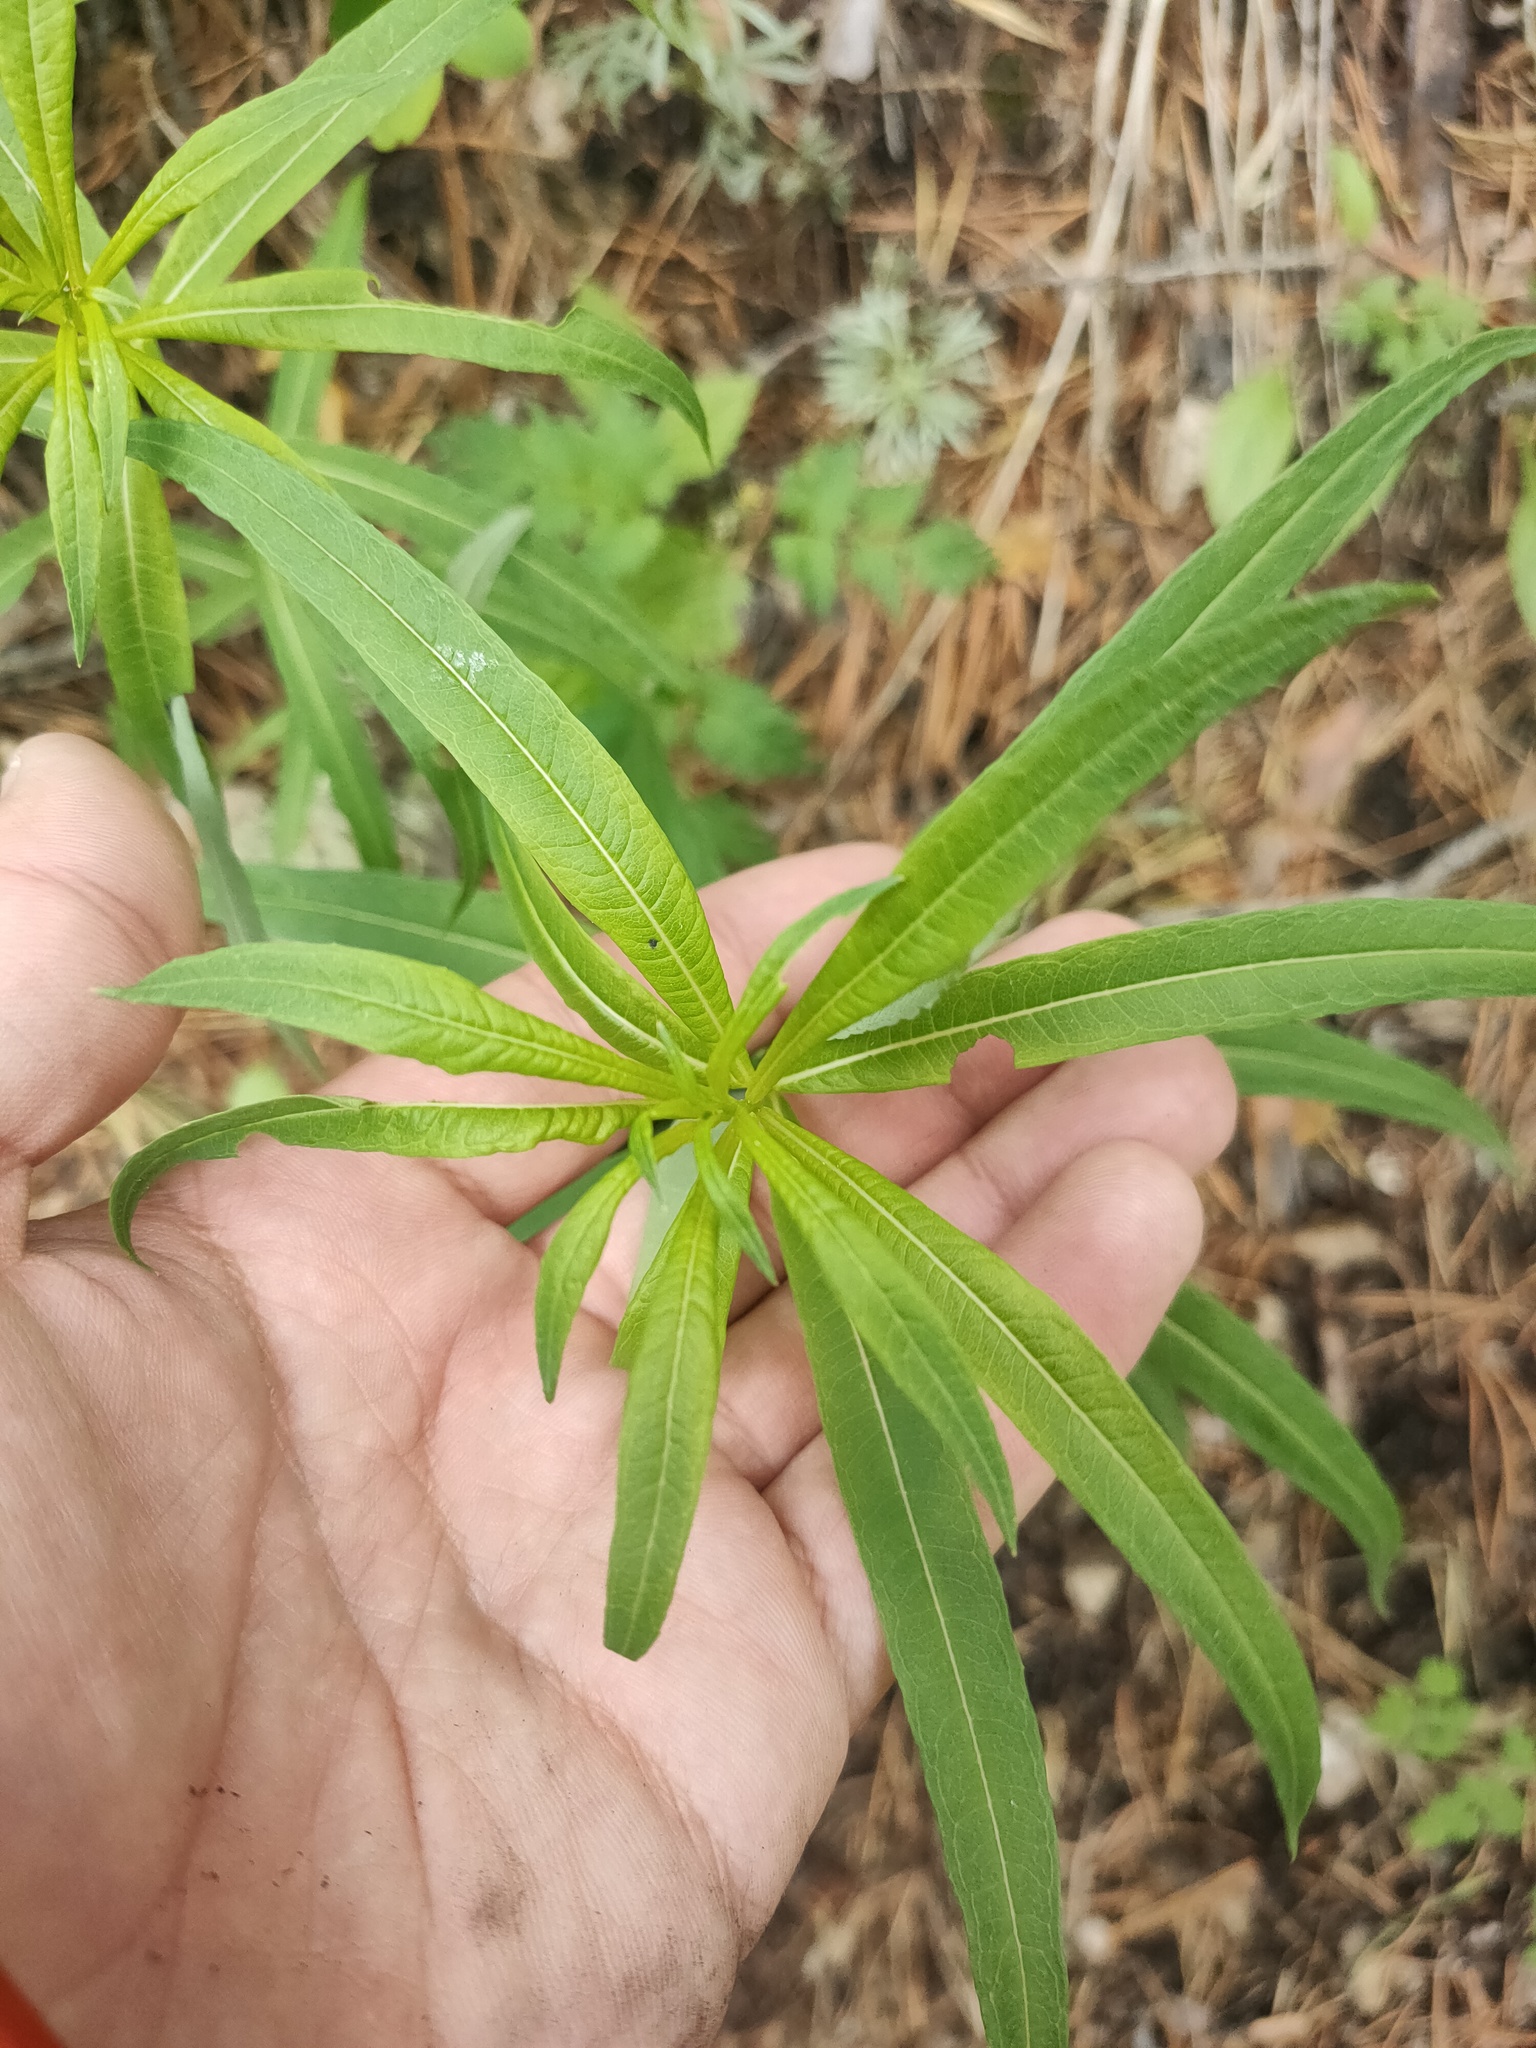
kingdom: Plantae
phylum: Tracheophyta
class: Magnoliopsida
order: Myrtales
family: Onagraceae
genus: Chamaenerion
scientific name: Chamaenerion angustifolium
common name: Fireweed
